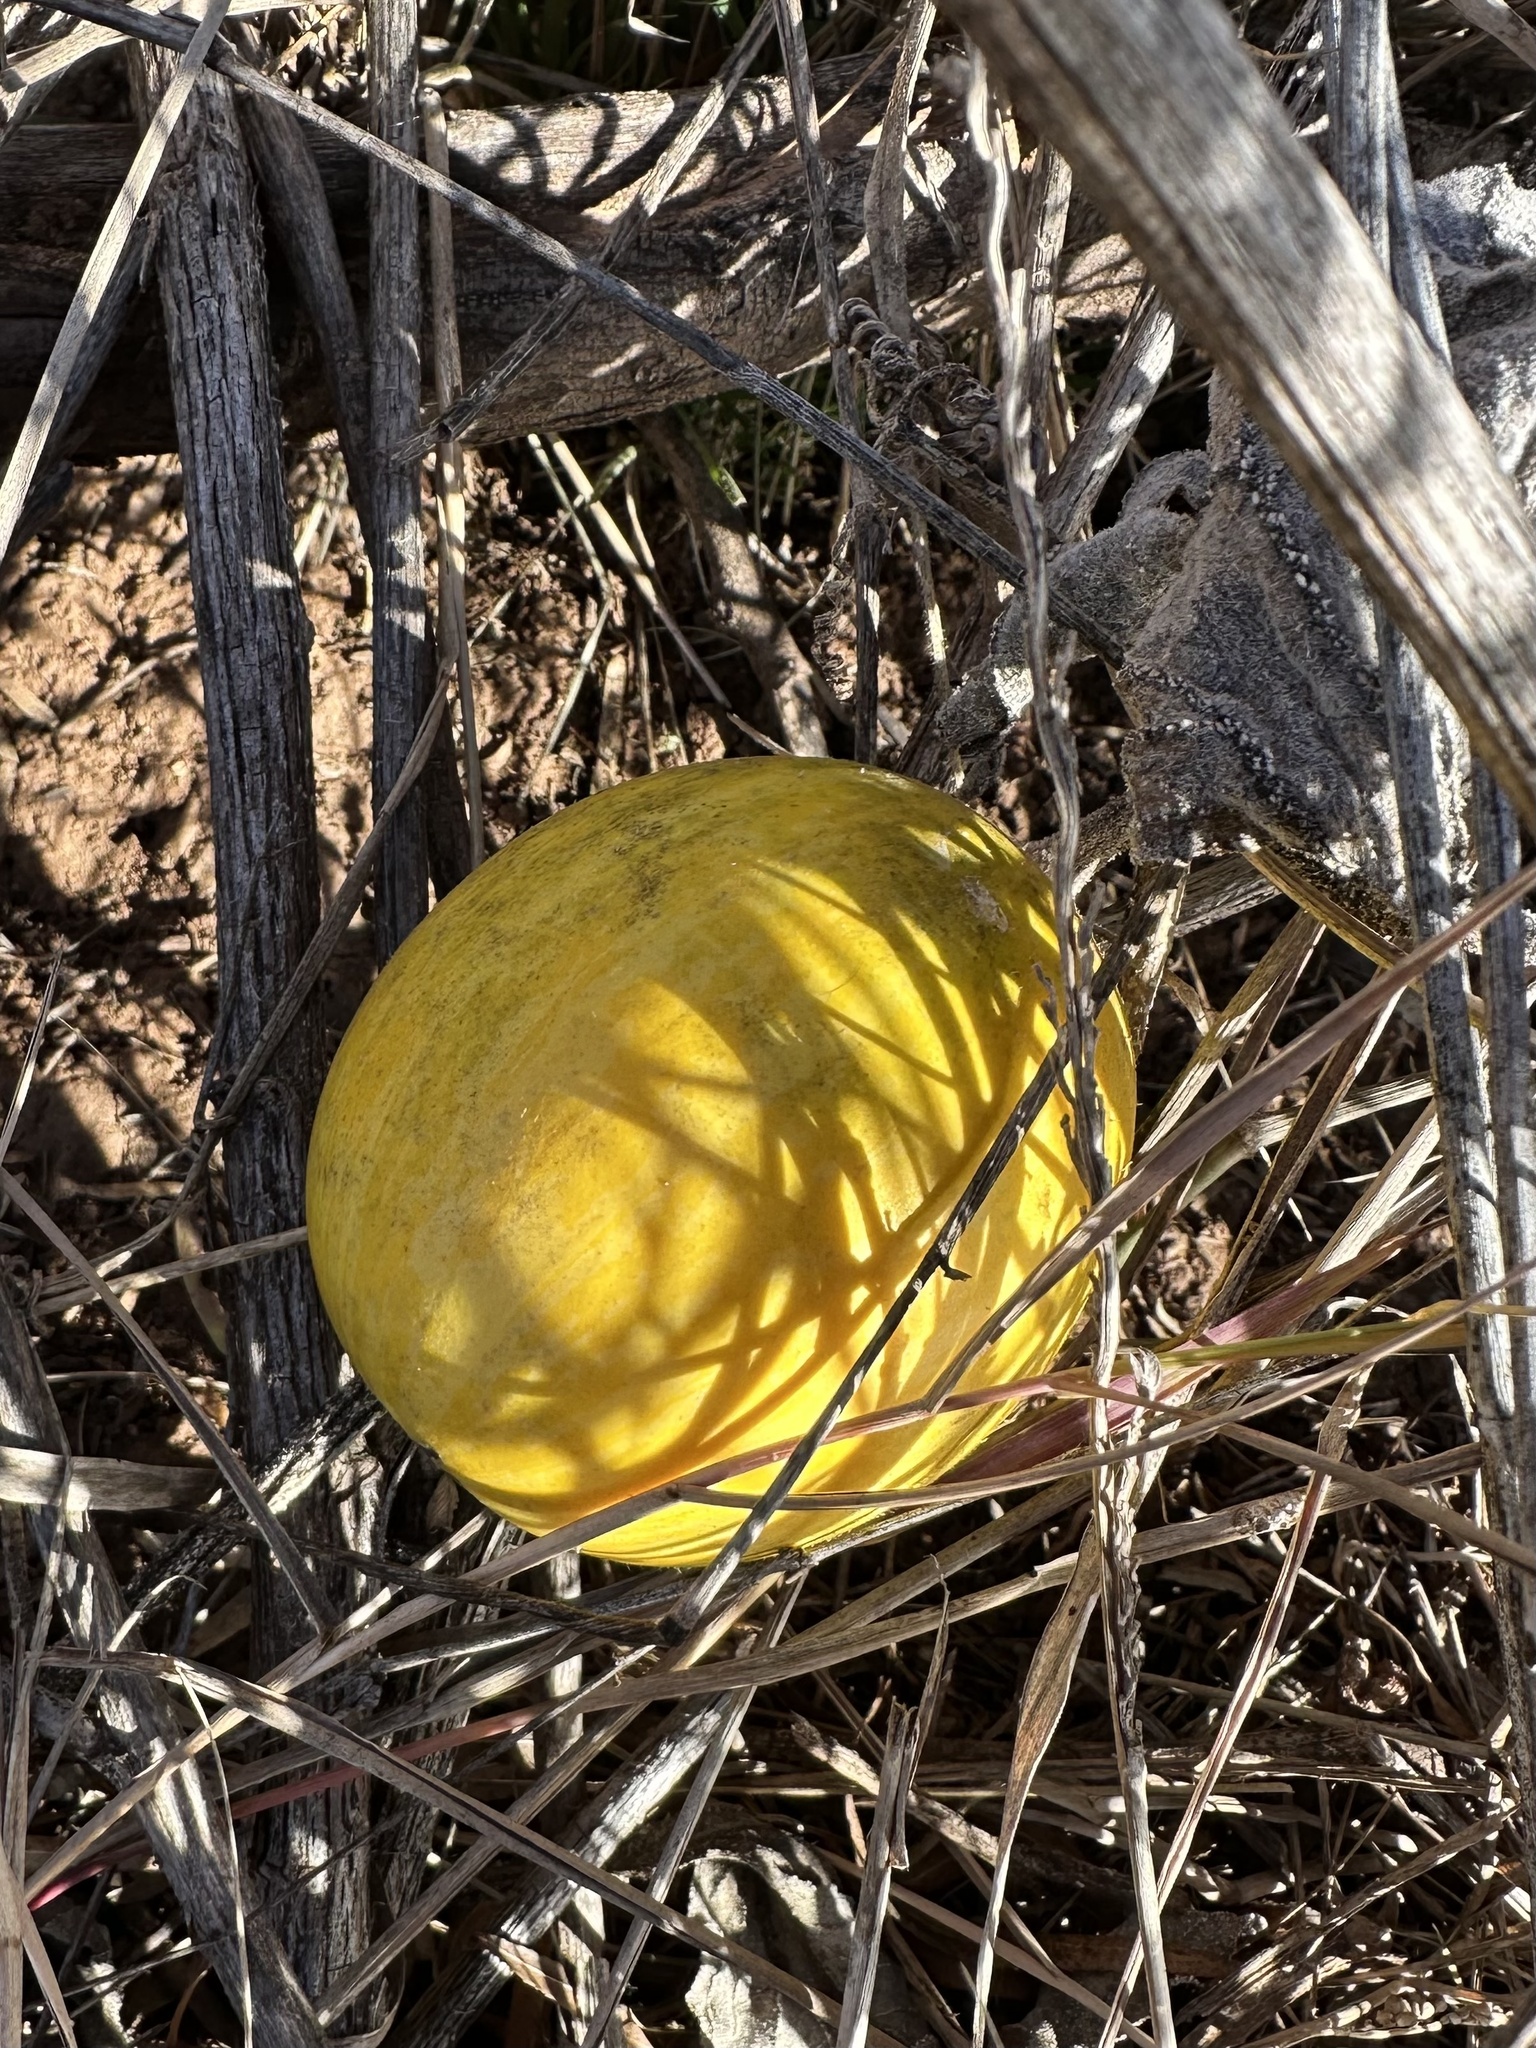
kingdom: Plantae
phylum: Tracheophyta
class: Magnoliopsida
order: Cucurbitales
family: Cucurbitaceae
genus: Cucurbita
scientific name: Cucurbita foetidissima
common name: Buffalo gourd
